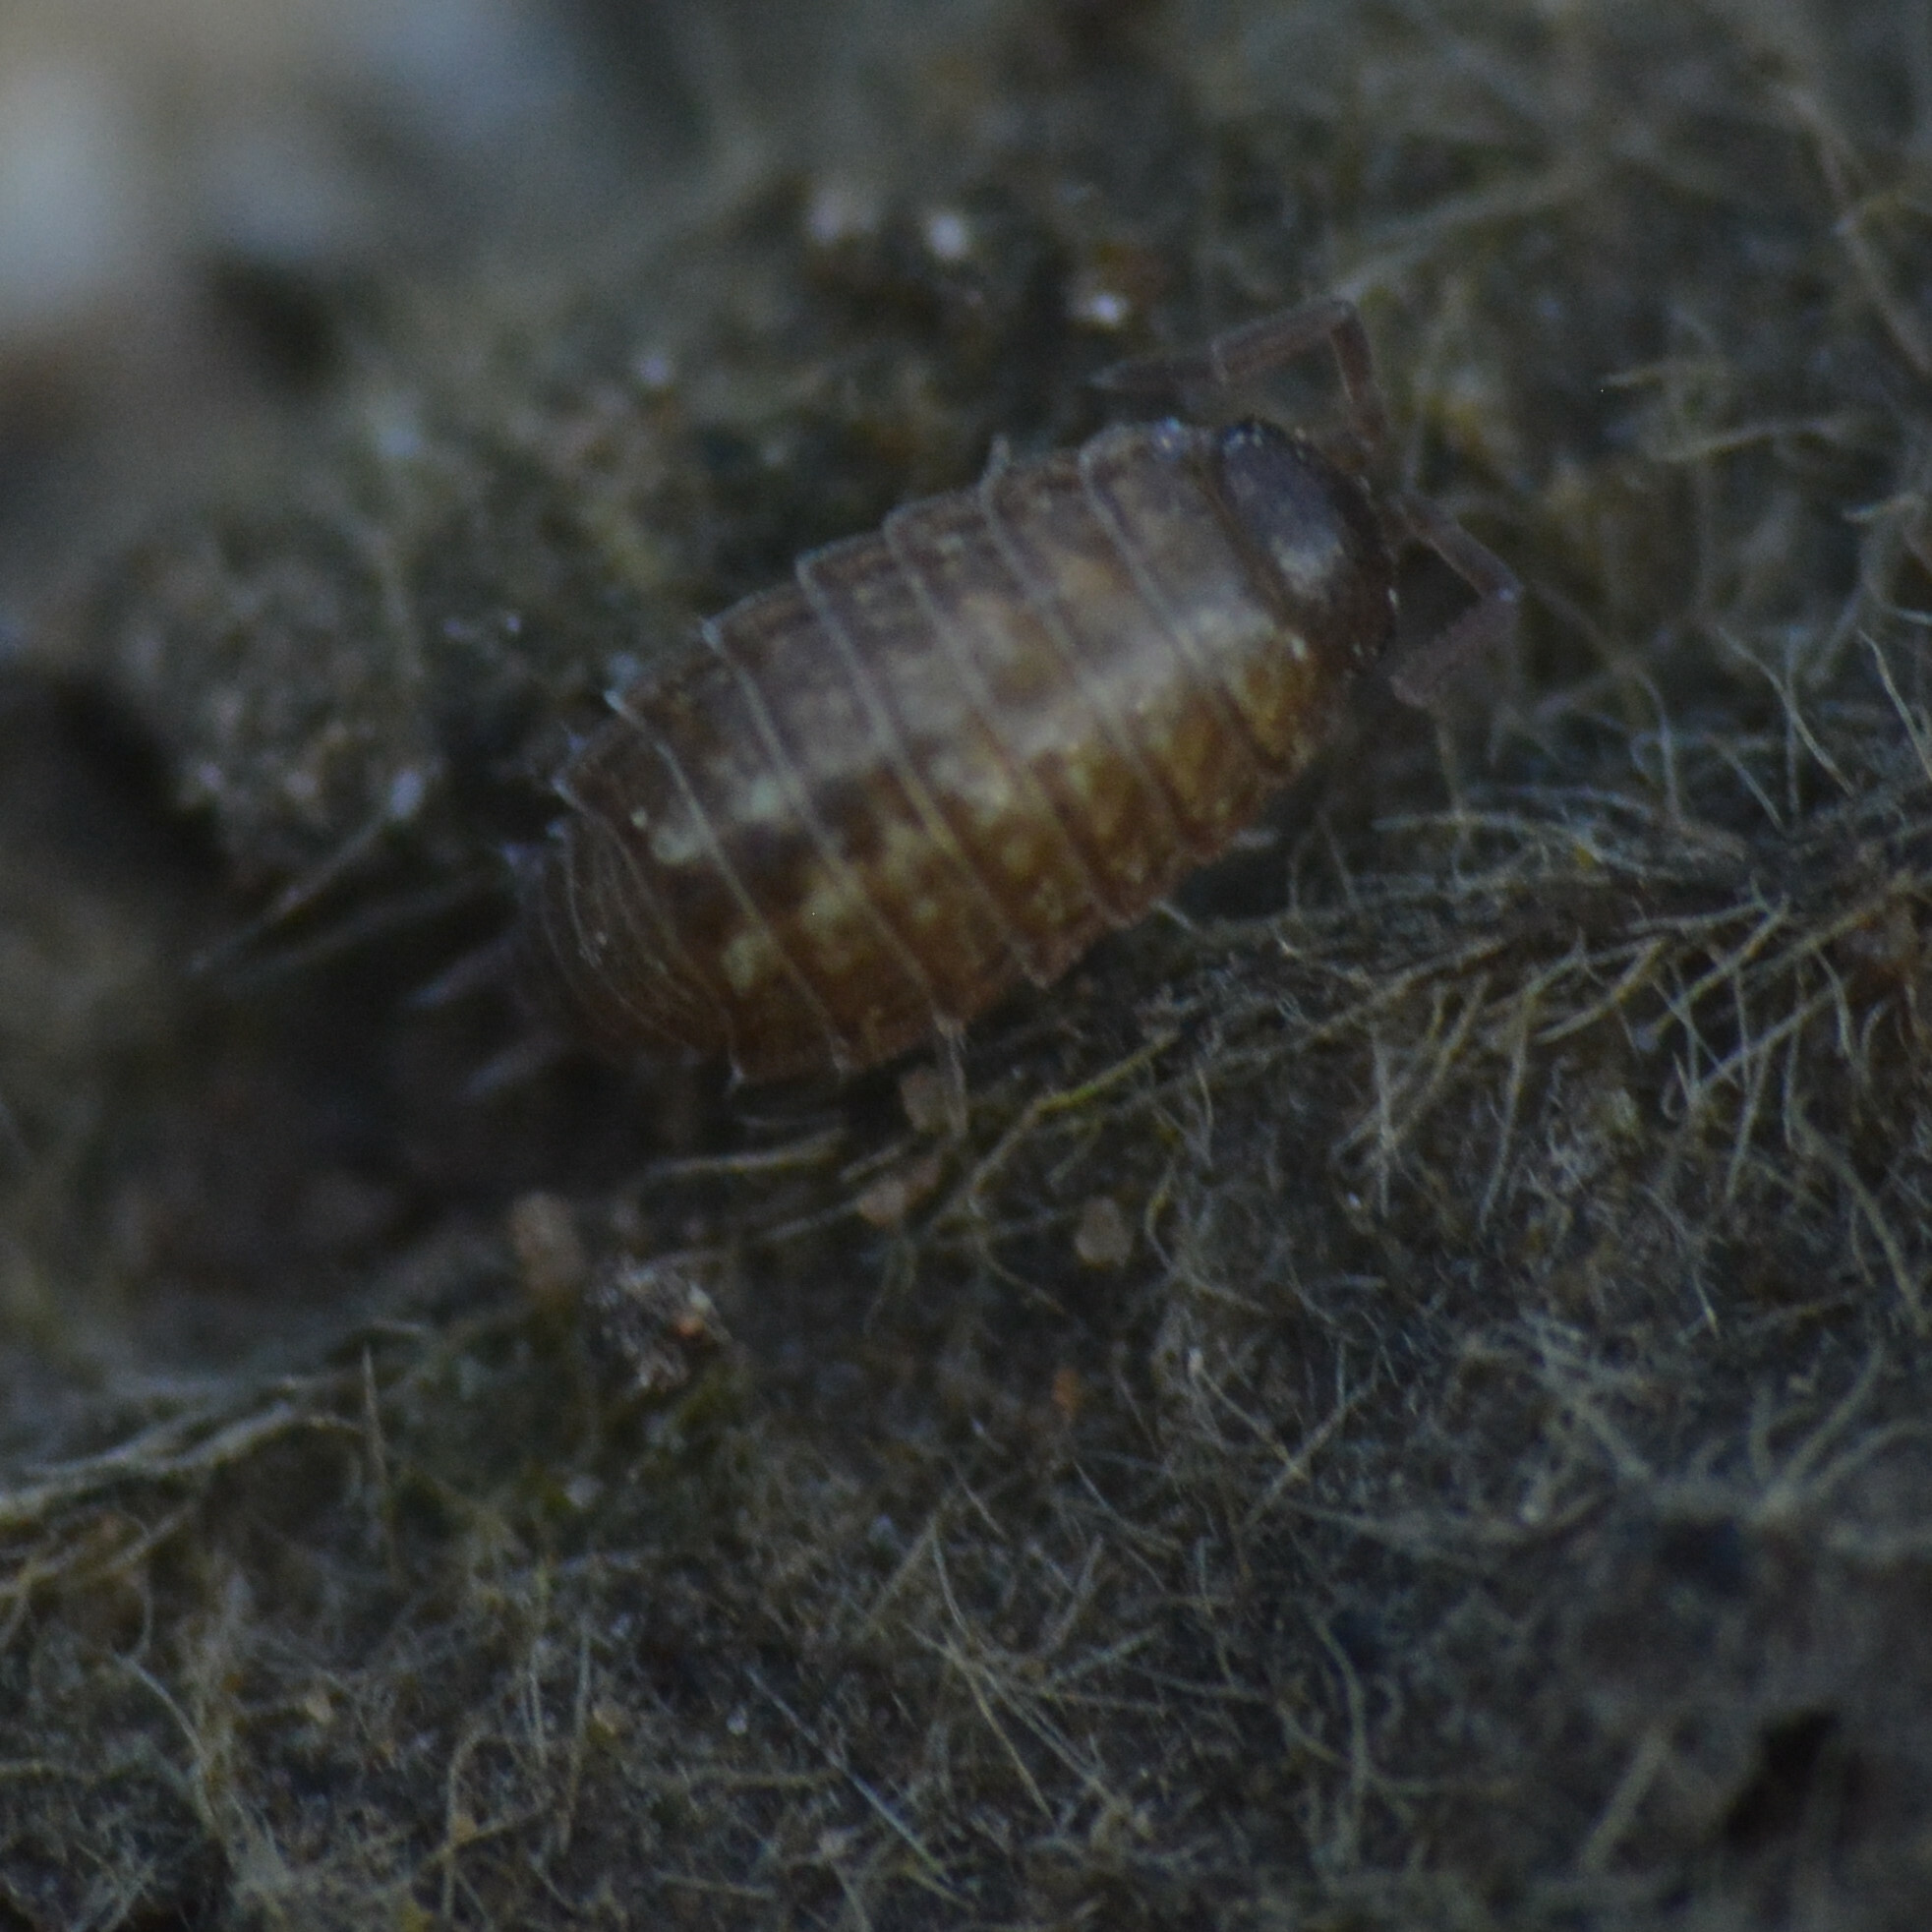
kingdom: Animalia
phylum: Arthropoda
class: Malacostraca
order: Isopoda
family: Philosciidae
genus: Philoscia
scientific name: Philoscia muscorum
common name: Common striped woodlouse
